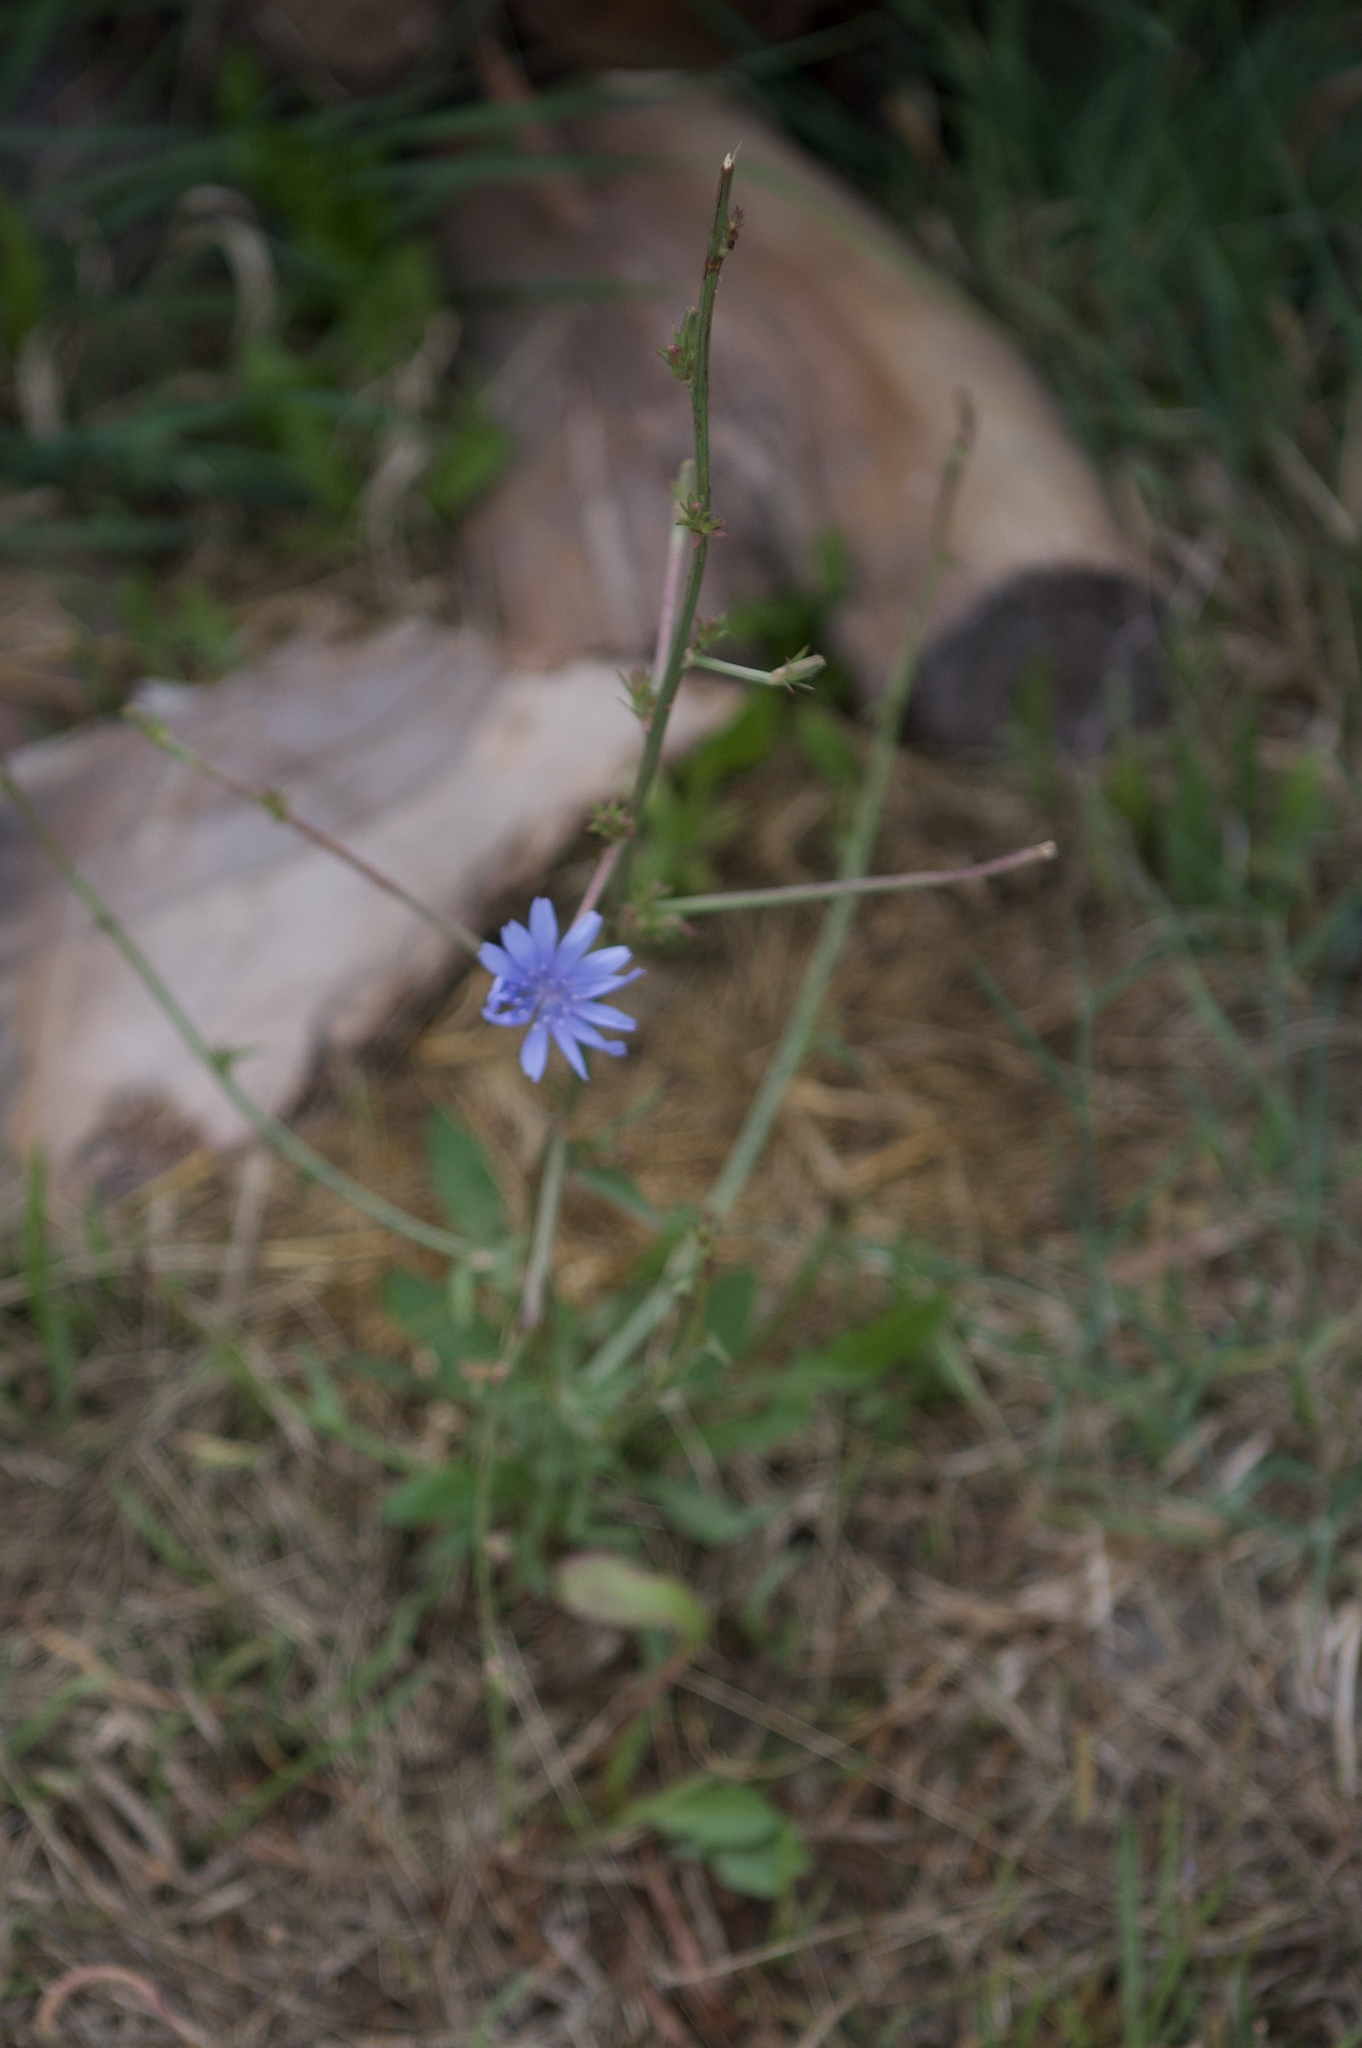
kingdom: Plantae
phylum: Tracheophyta
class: Magnoliopsida
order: Asterales
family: Asteraceae
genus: Cichorium
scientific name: Cichorium intybus
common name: Chicory
